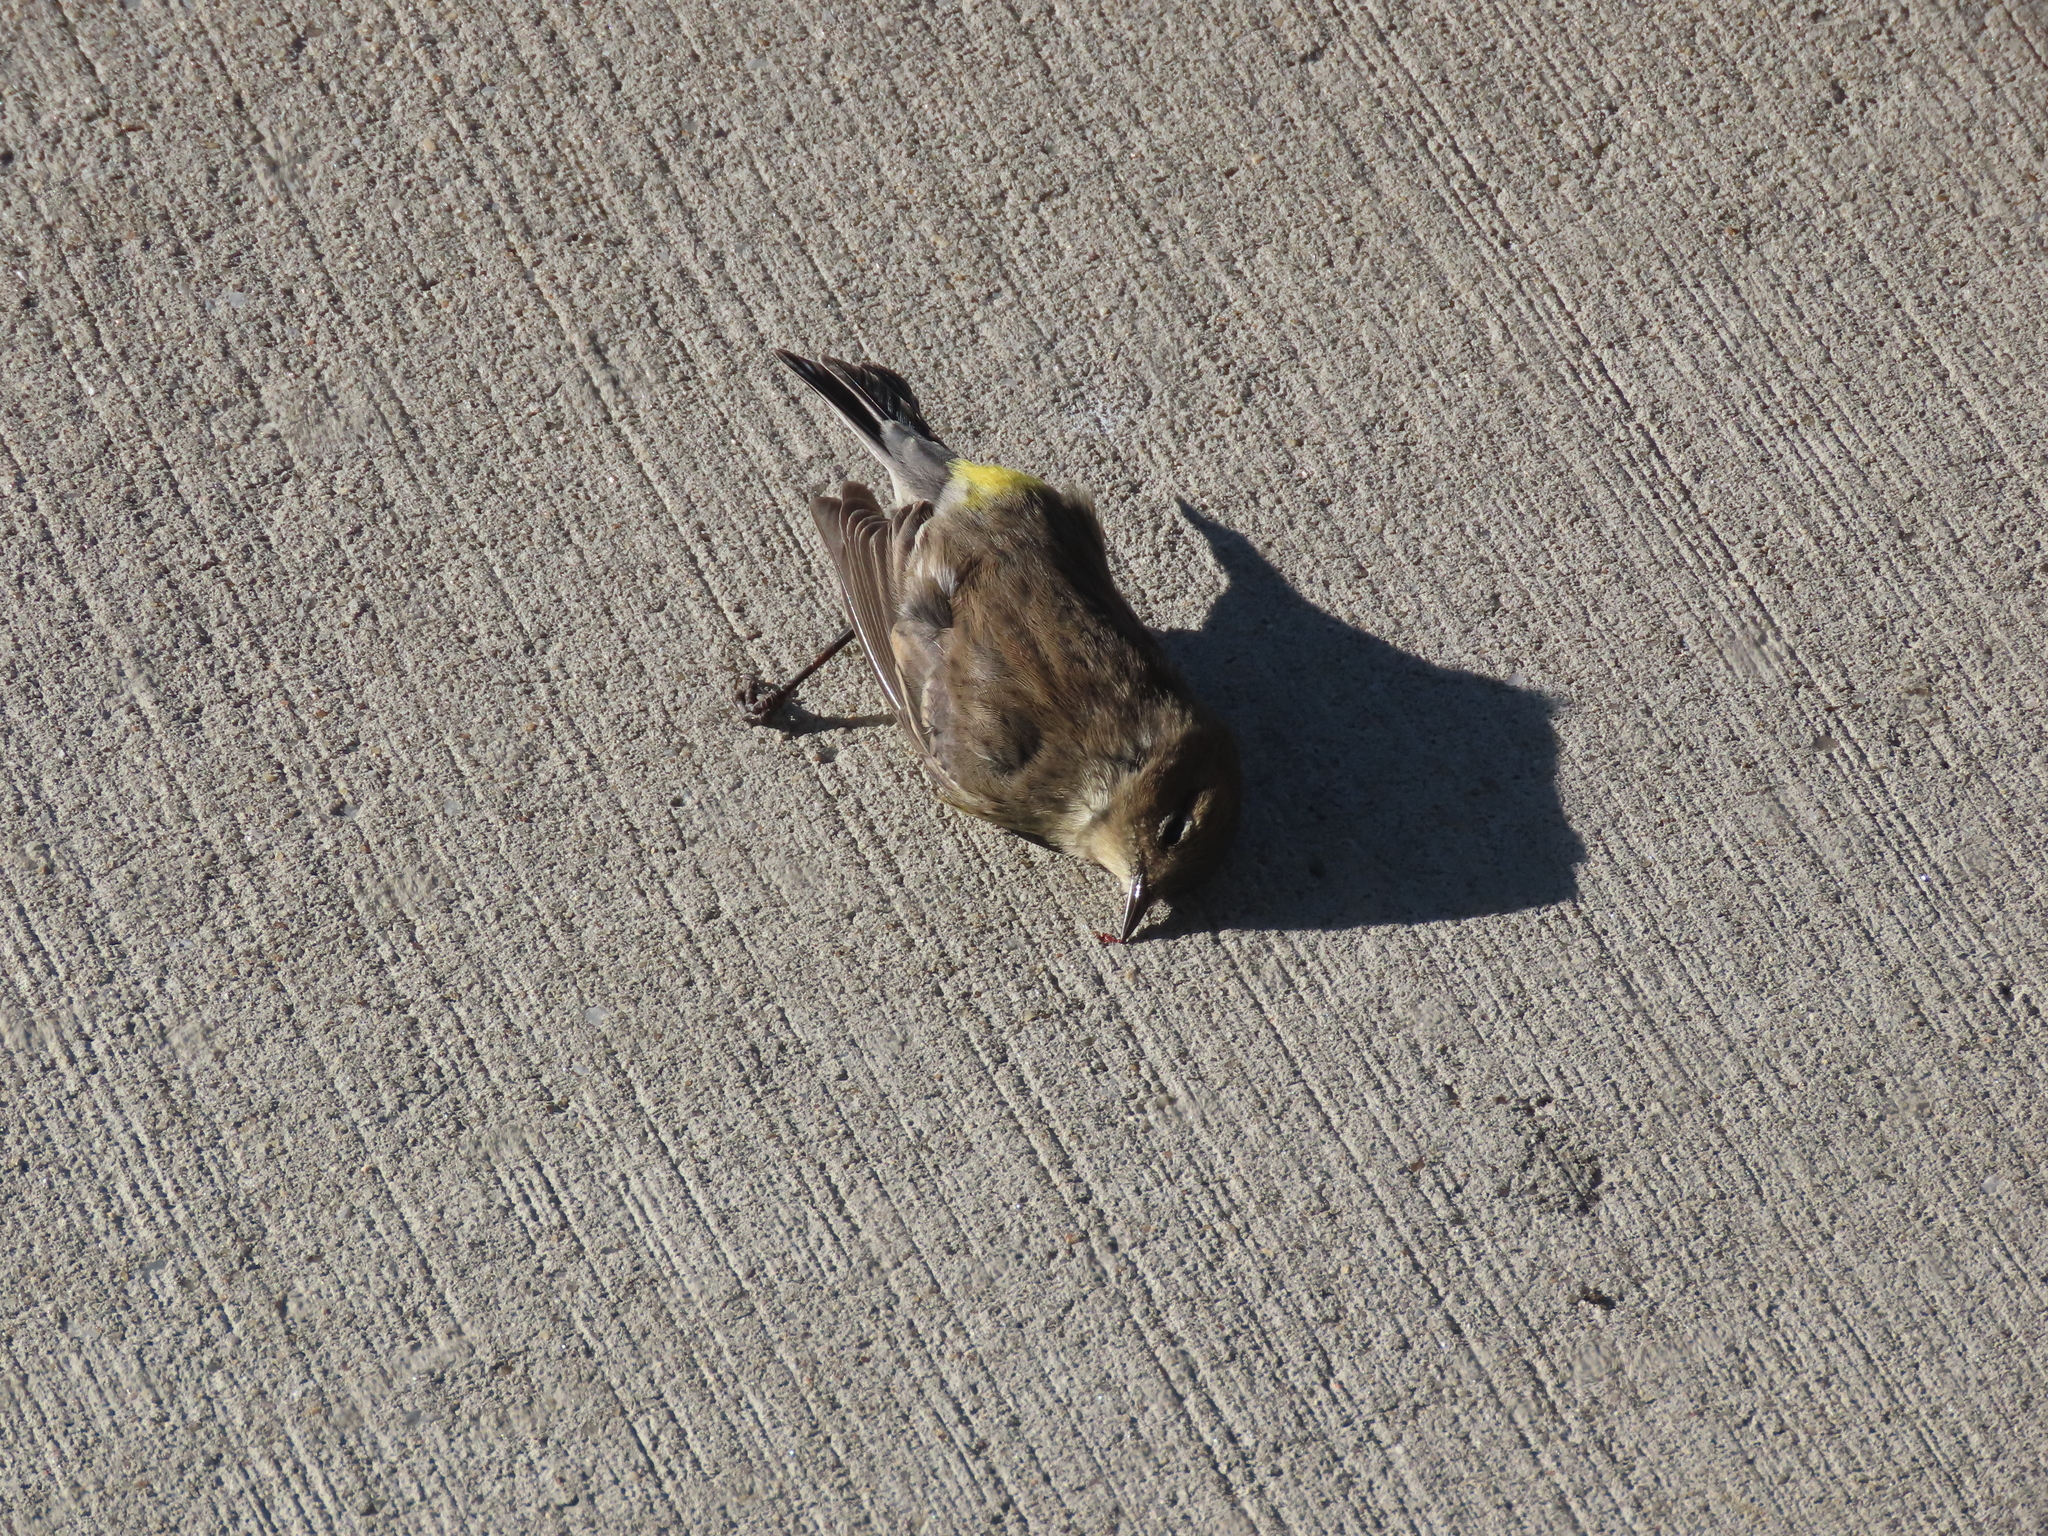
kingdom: Animalia
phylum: Chordata
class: Aves
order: Passeriformes
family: Parulidae
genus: Setophaga
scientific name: Setophaga coronata
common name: Myrtle warbler
